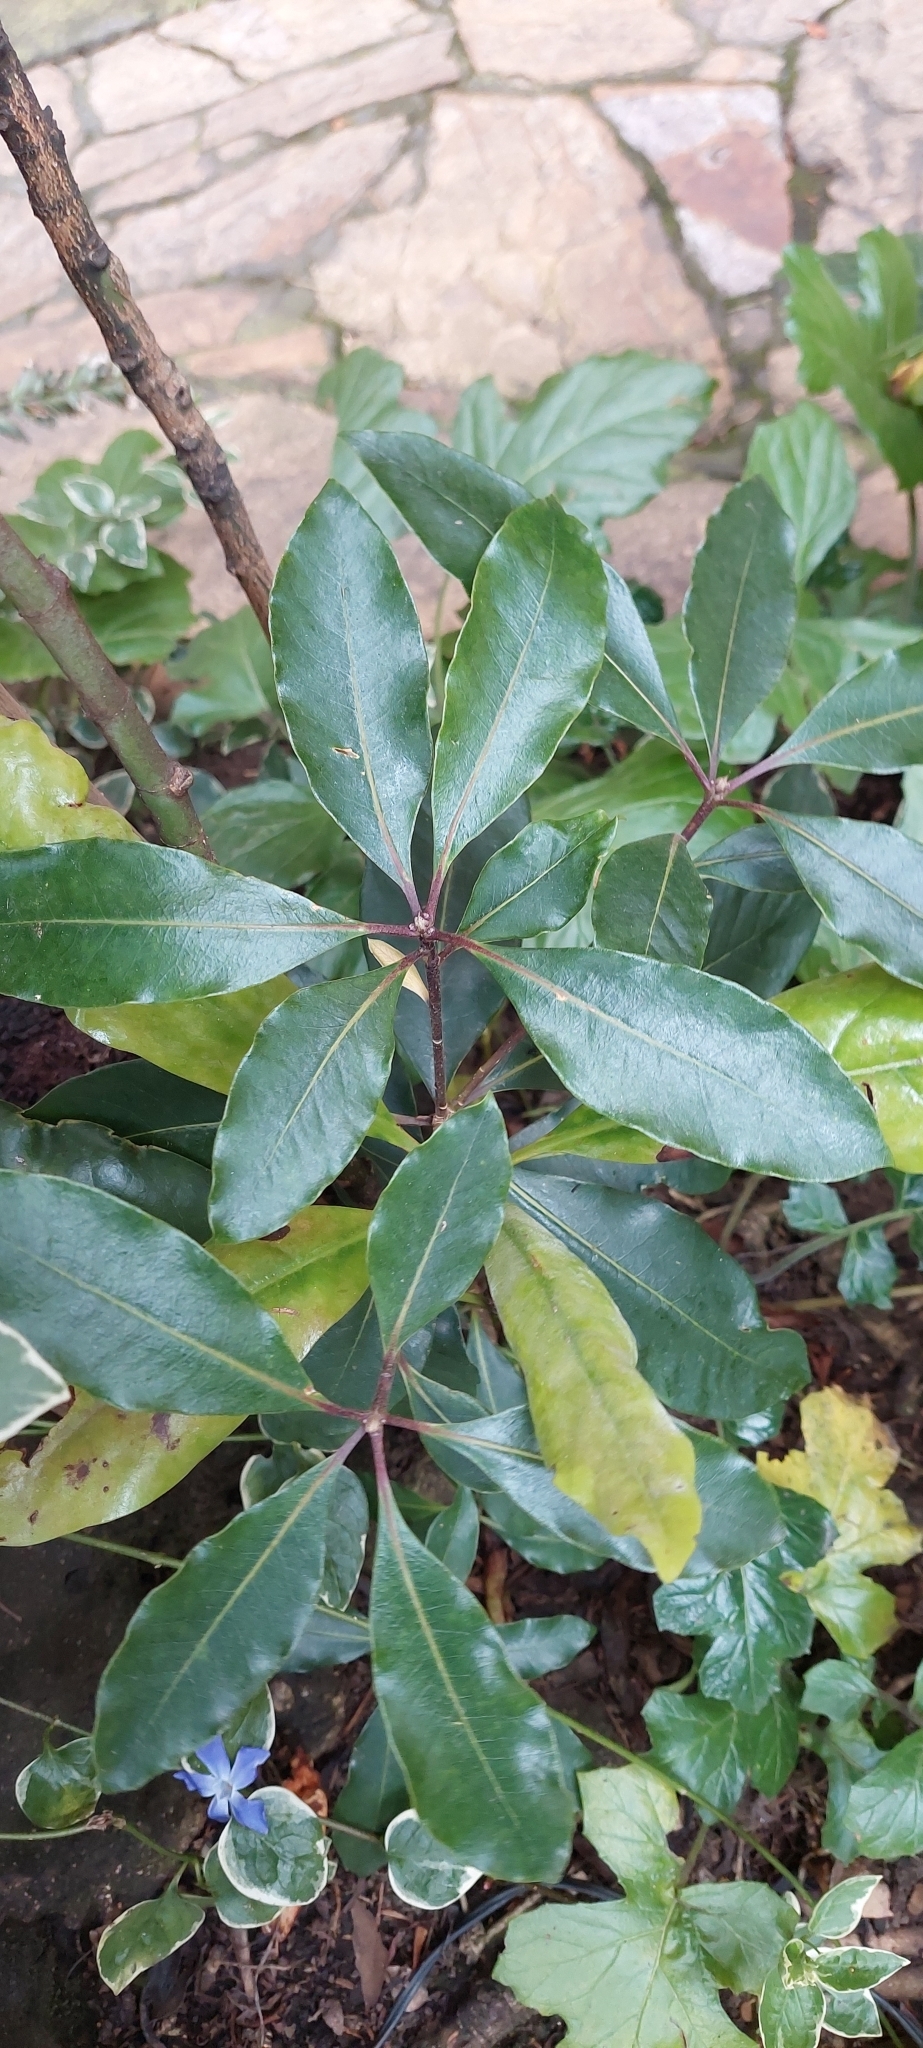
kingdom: Plantae
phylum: Tracheophyta
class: Magnoliopsida
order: Apiales
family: Pittosporaceae
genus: Pittosporum
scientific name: Pittosporum undulatum
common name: Australian cheesewood
